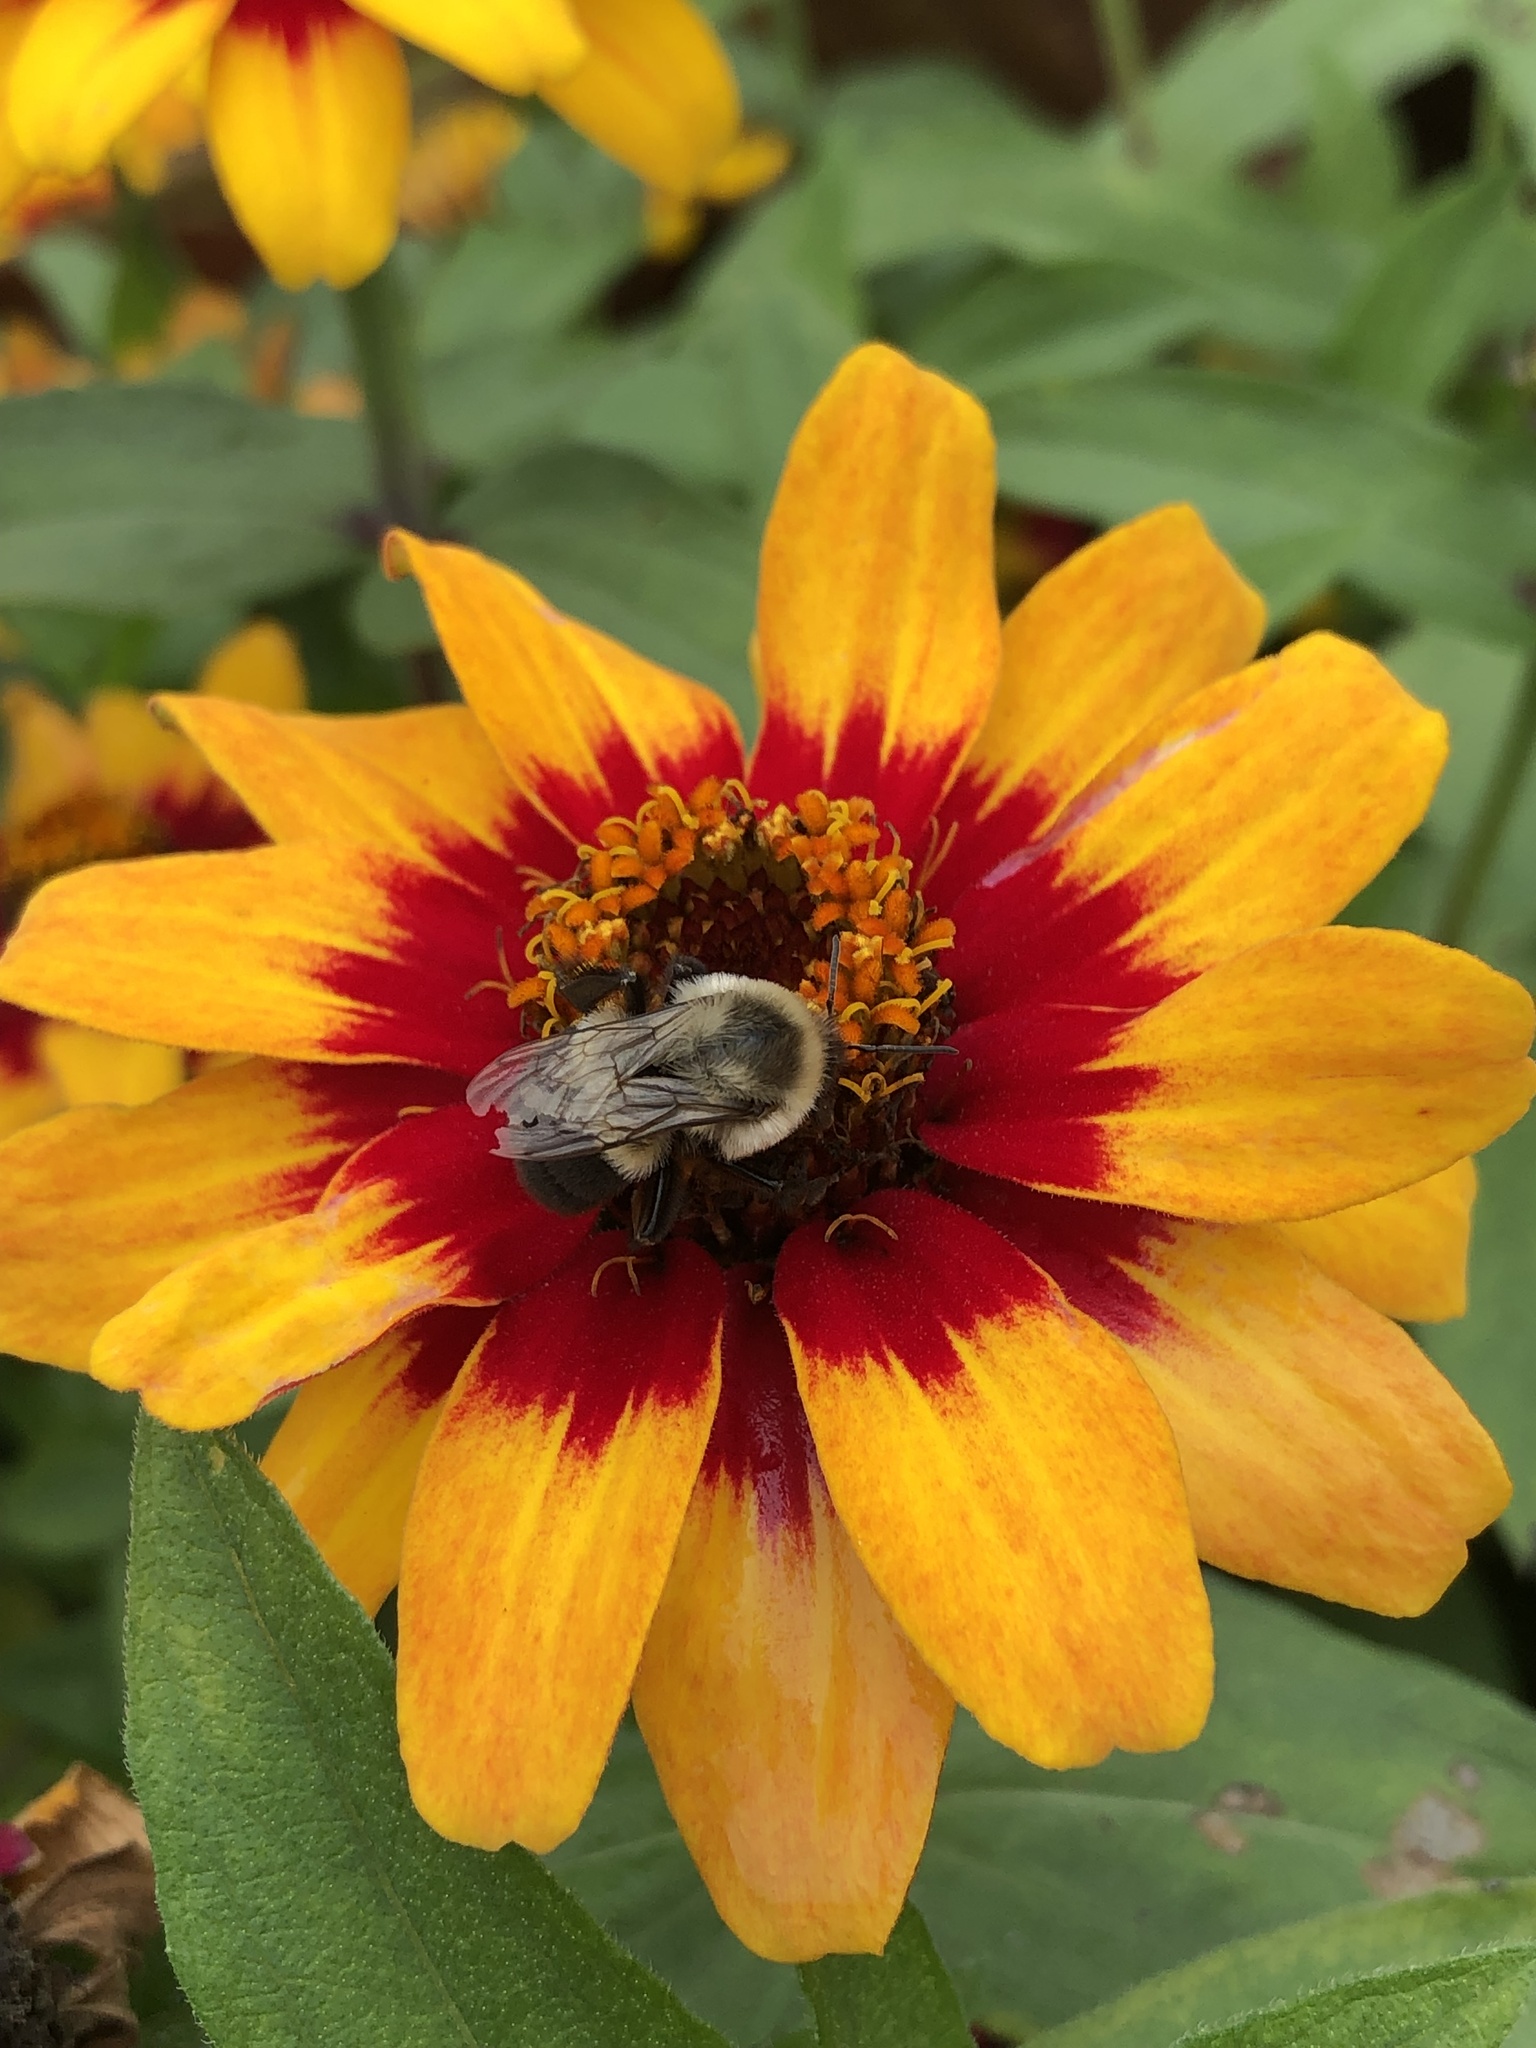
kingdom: Animalia
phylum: Arthropoda
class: Insecta
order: Hymenoptera
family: Apidae
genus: Bombus
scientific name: Bombus impatiens
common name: Common eastern bumble bee
